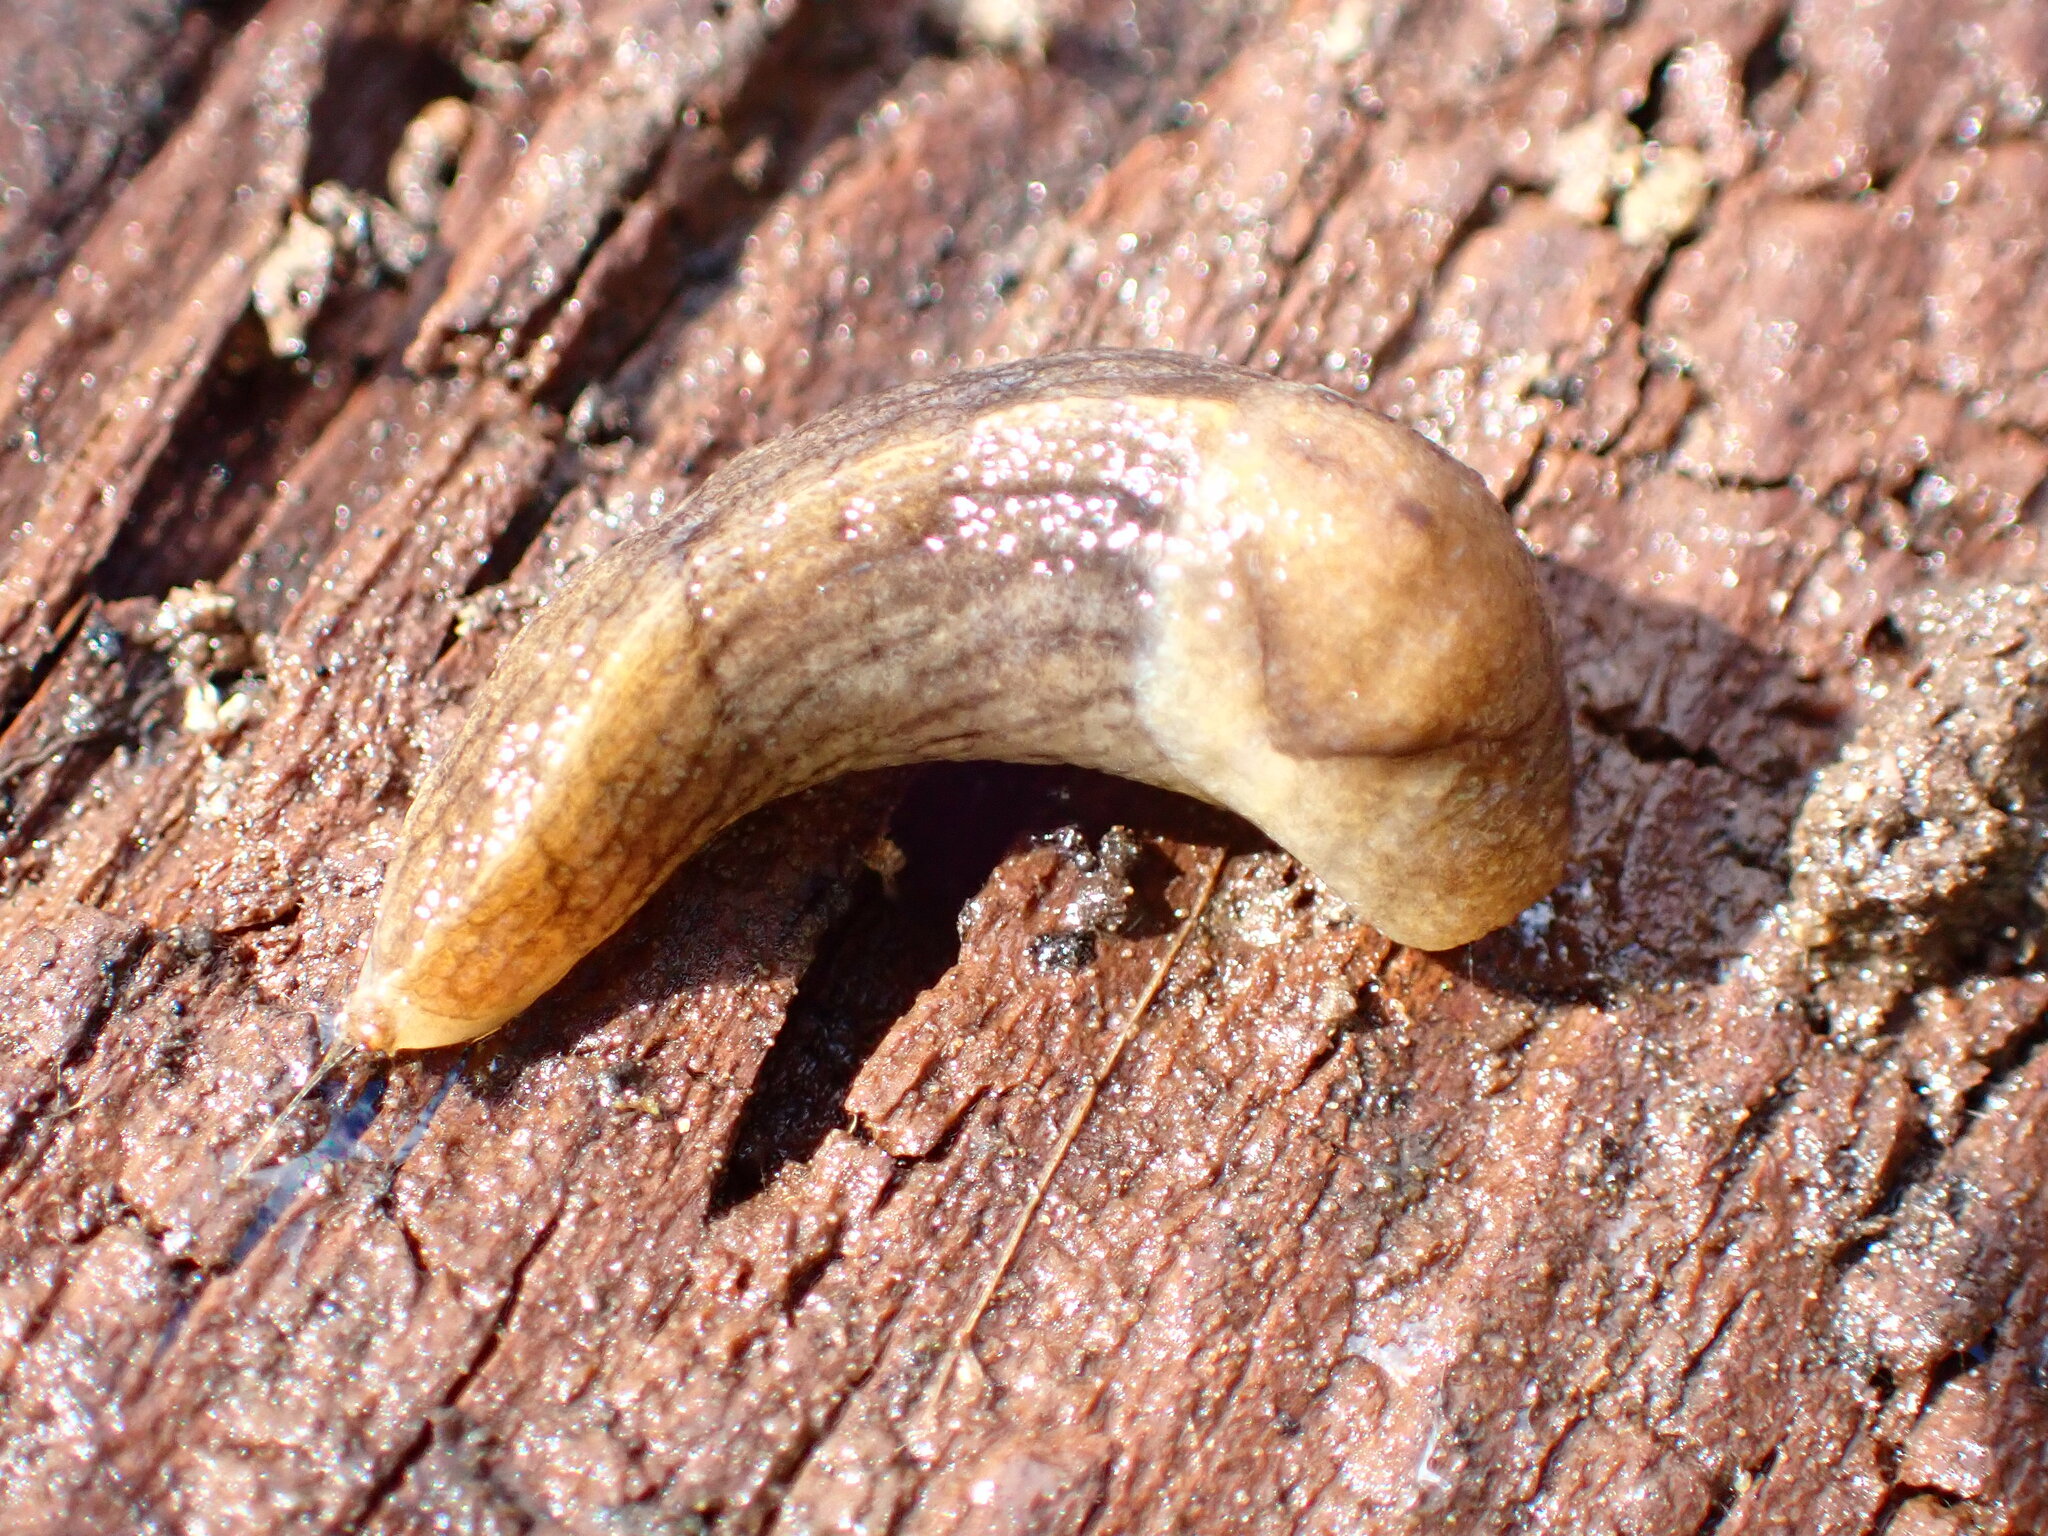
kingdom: Animalia
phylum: Mollusca
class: Gastropoda
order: Stylommatophora
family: Milacidae
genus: Milax
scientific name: Milax gagates
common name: Greenhouse slug
